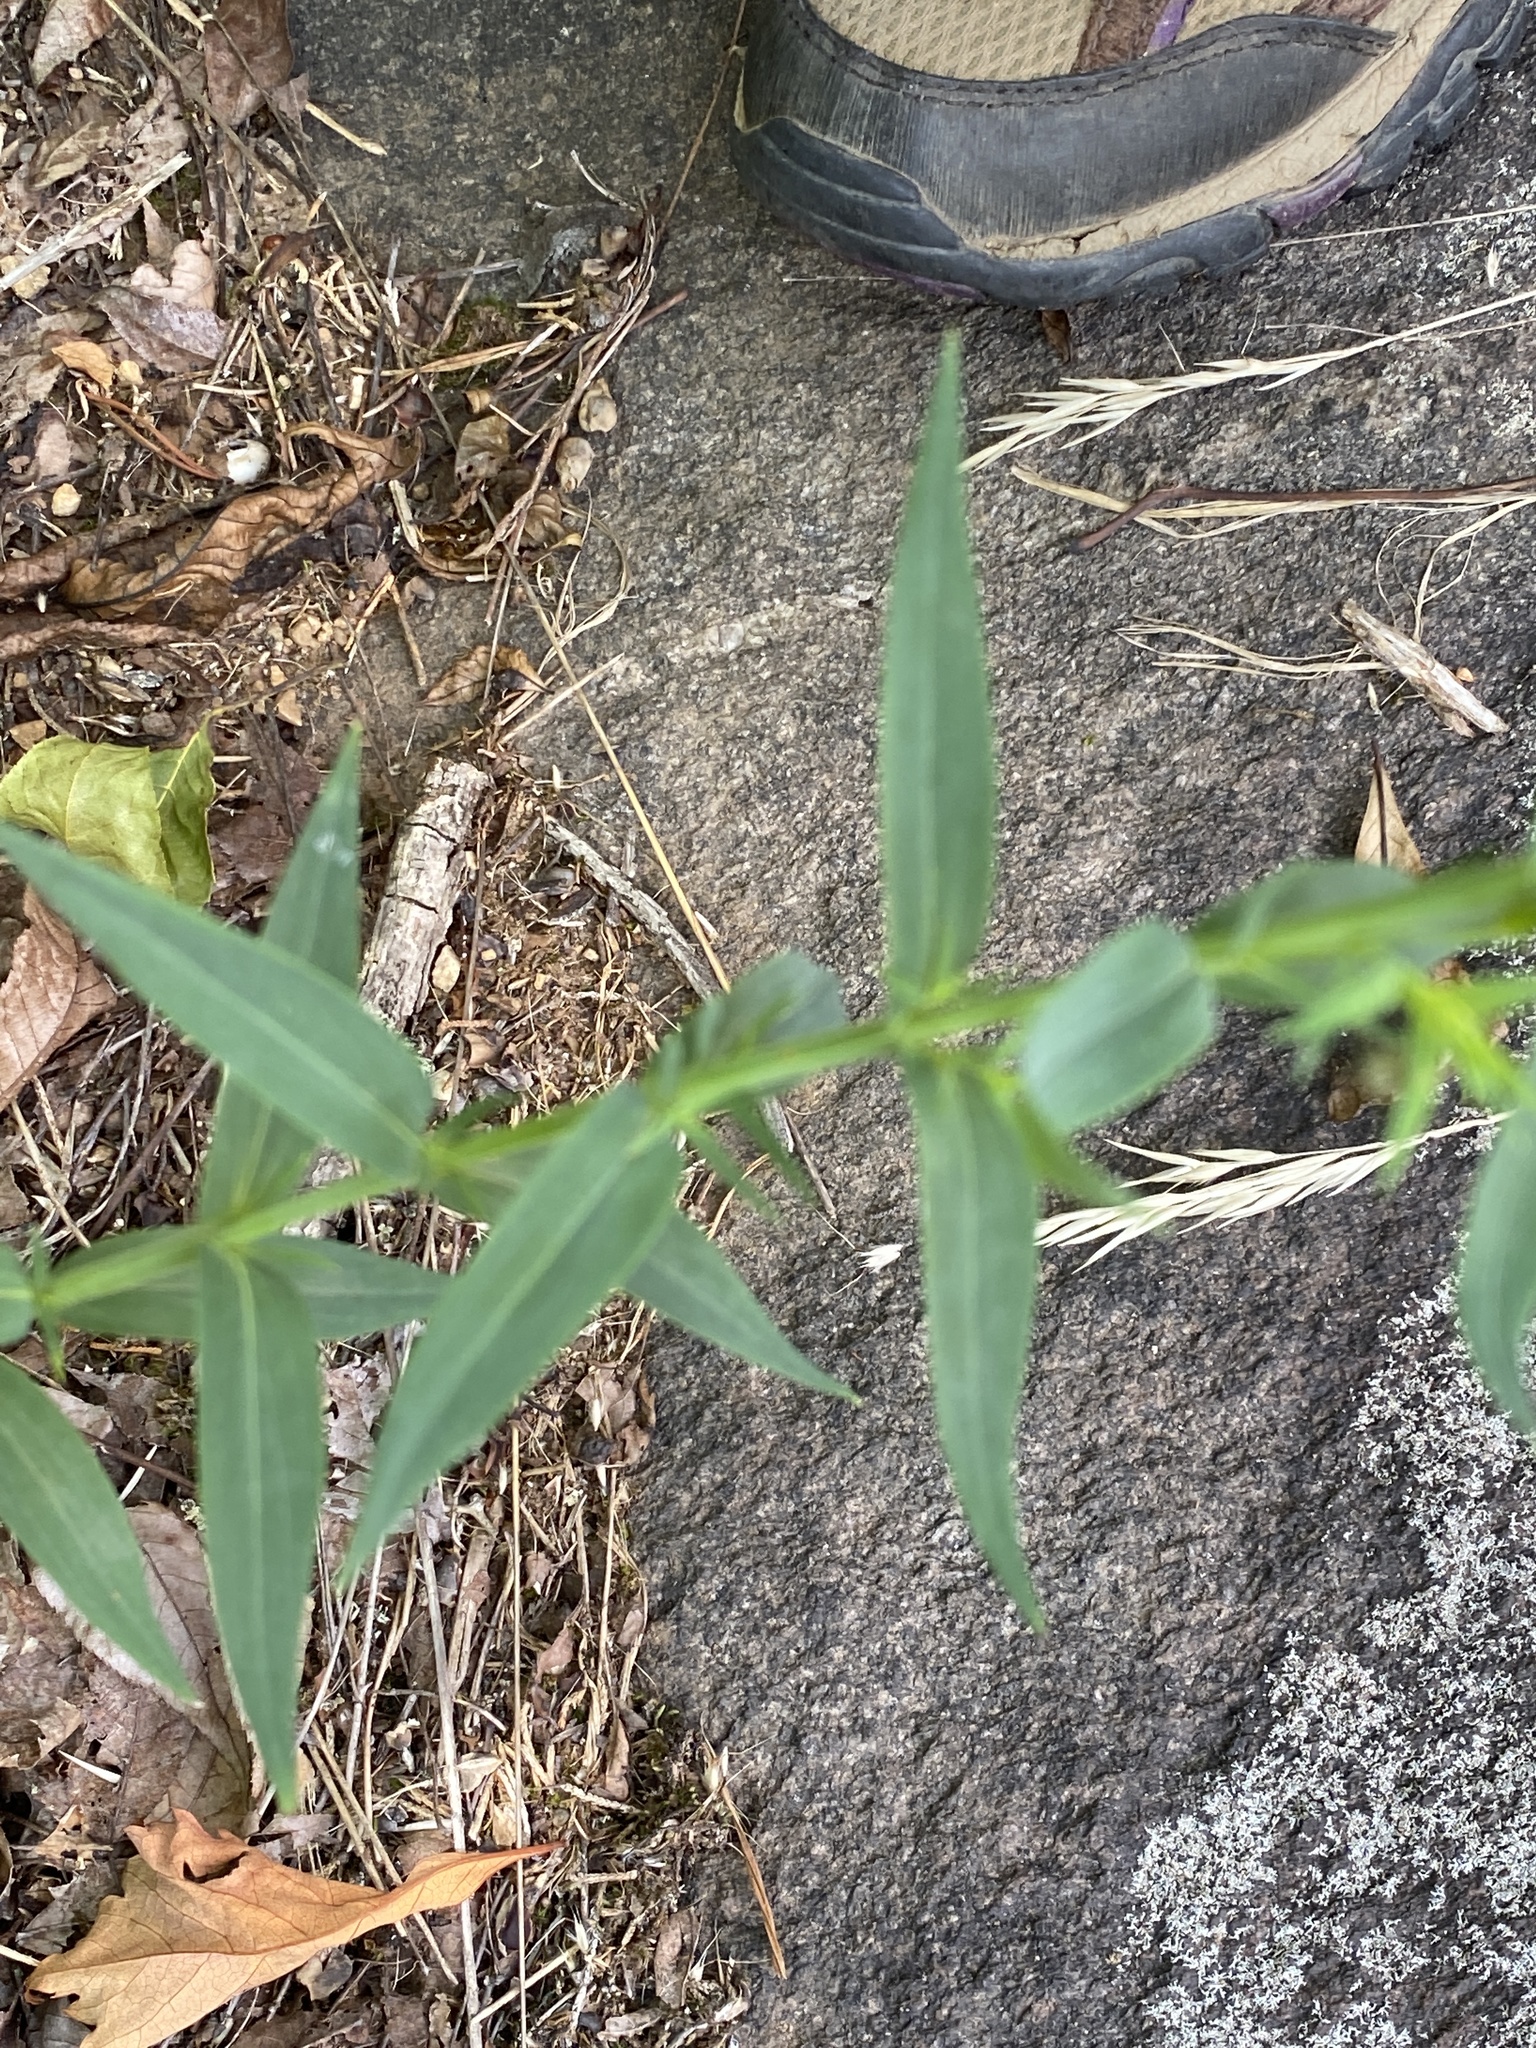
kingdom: Plantae
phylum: Tracheophyta
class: Magnoliopsida
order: Malpighiales
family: Hypericaceae
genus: Hypericum
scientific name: Hypericum radfordiorum
